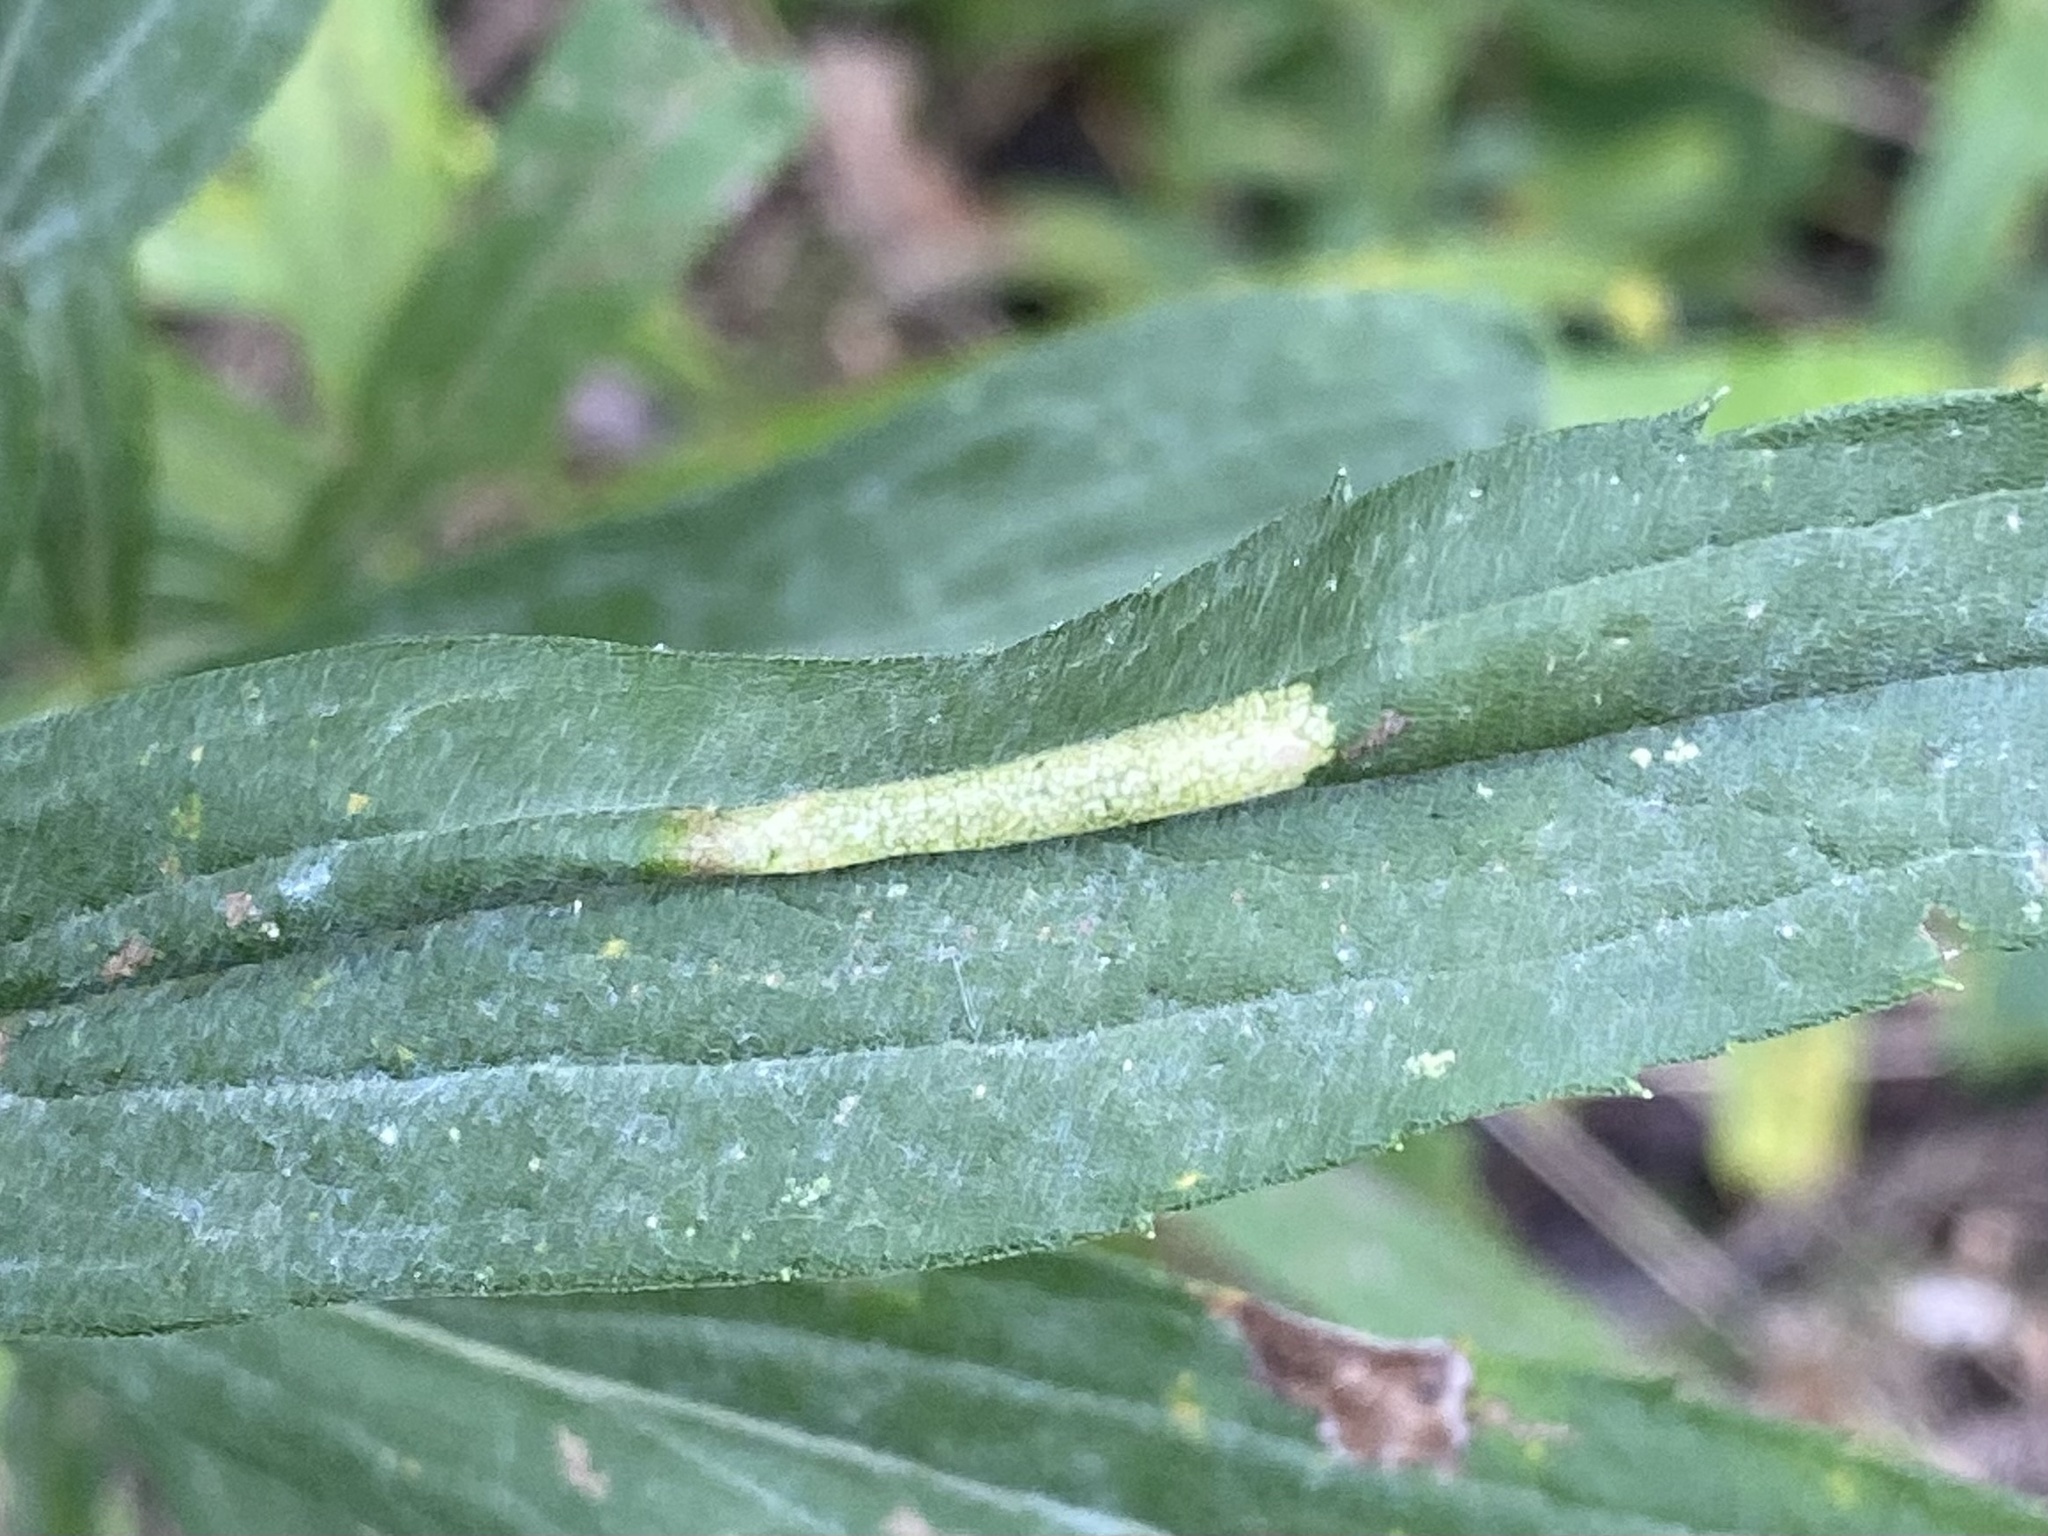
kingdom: Animalia
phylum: Arthropoda
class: Insecta
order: Lepidoptera
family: Gracillariidae
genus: Cremastobombycia
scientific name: Cremastobombycia solidaginis
